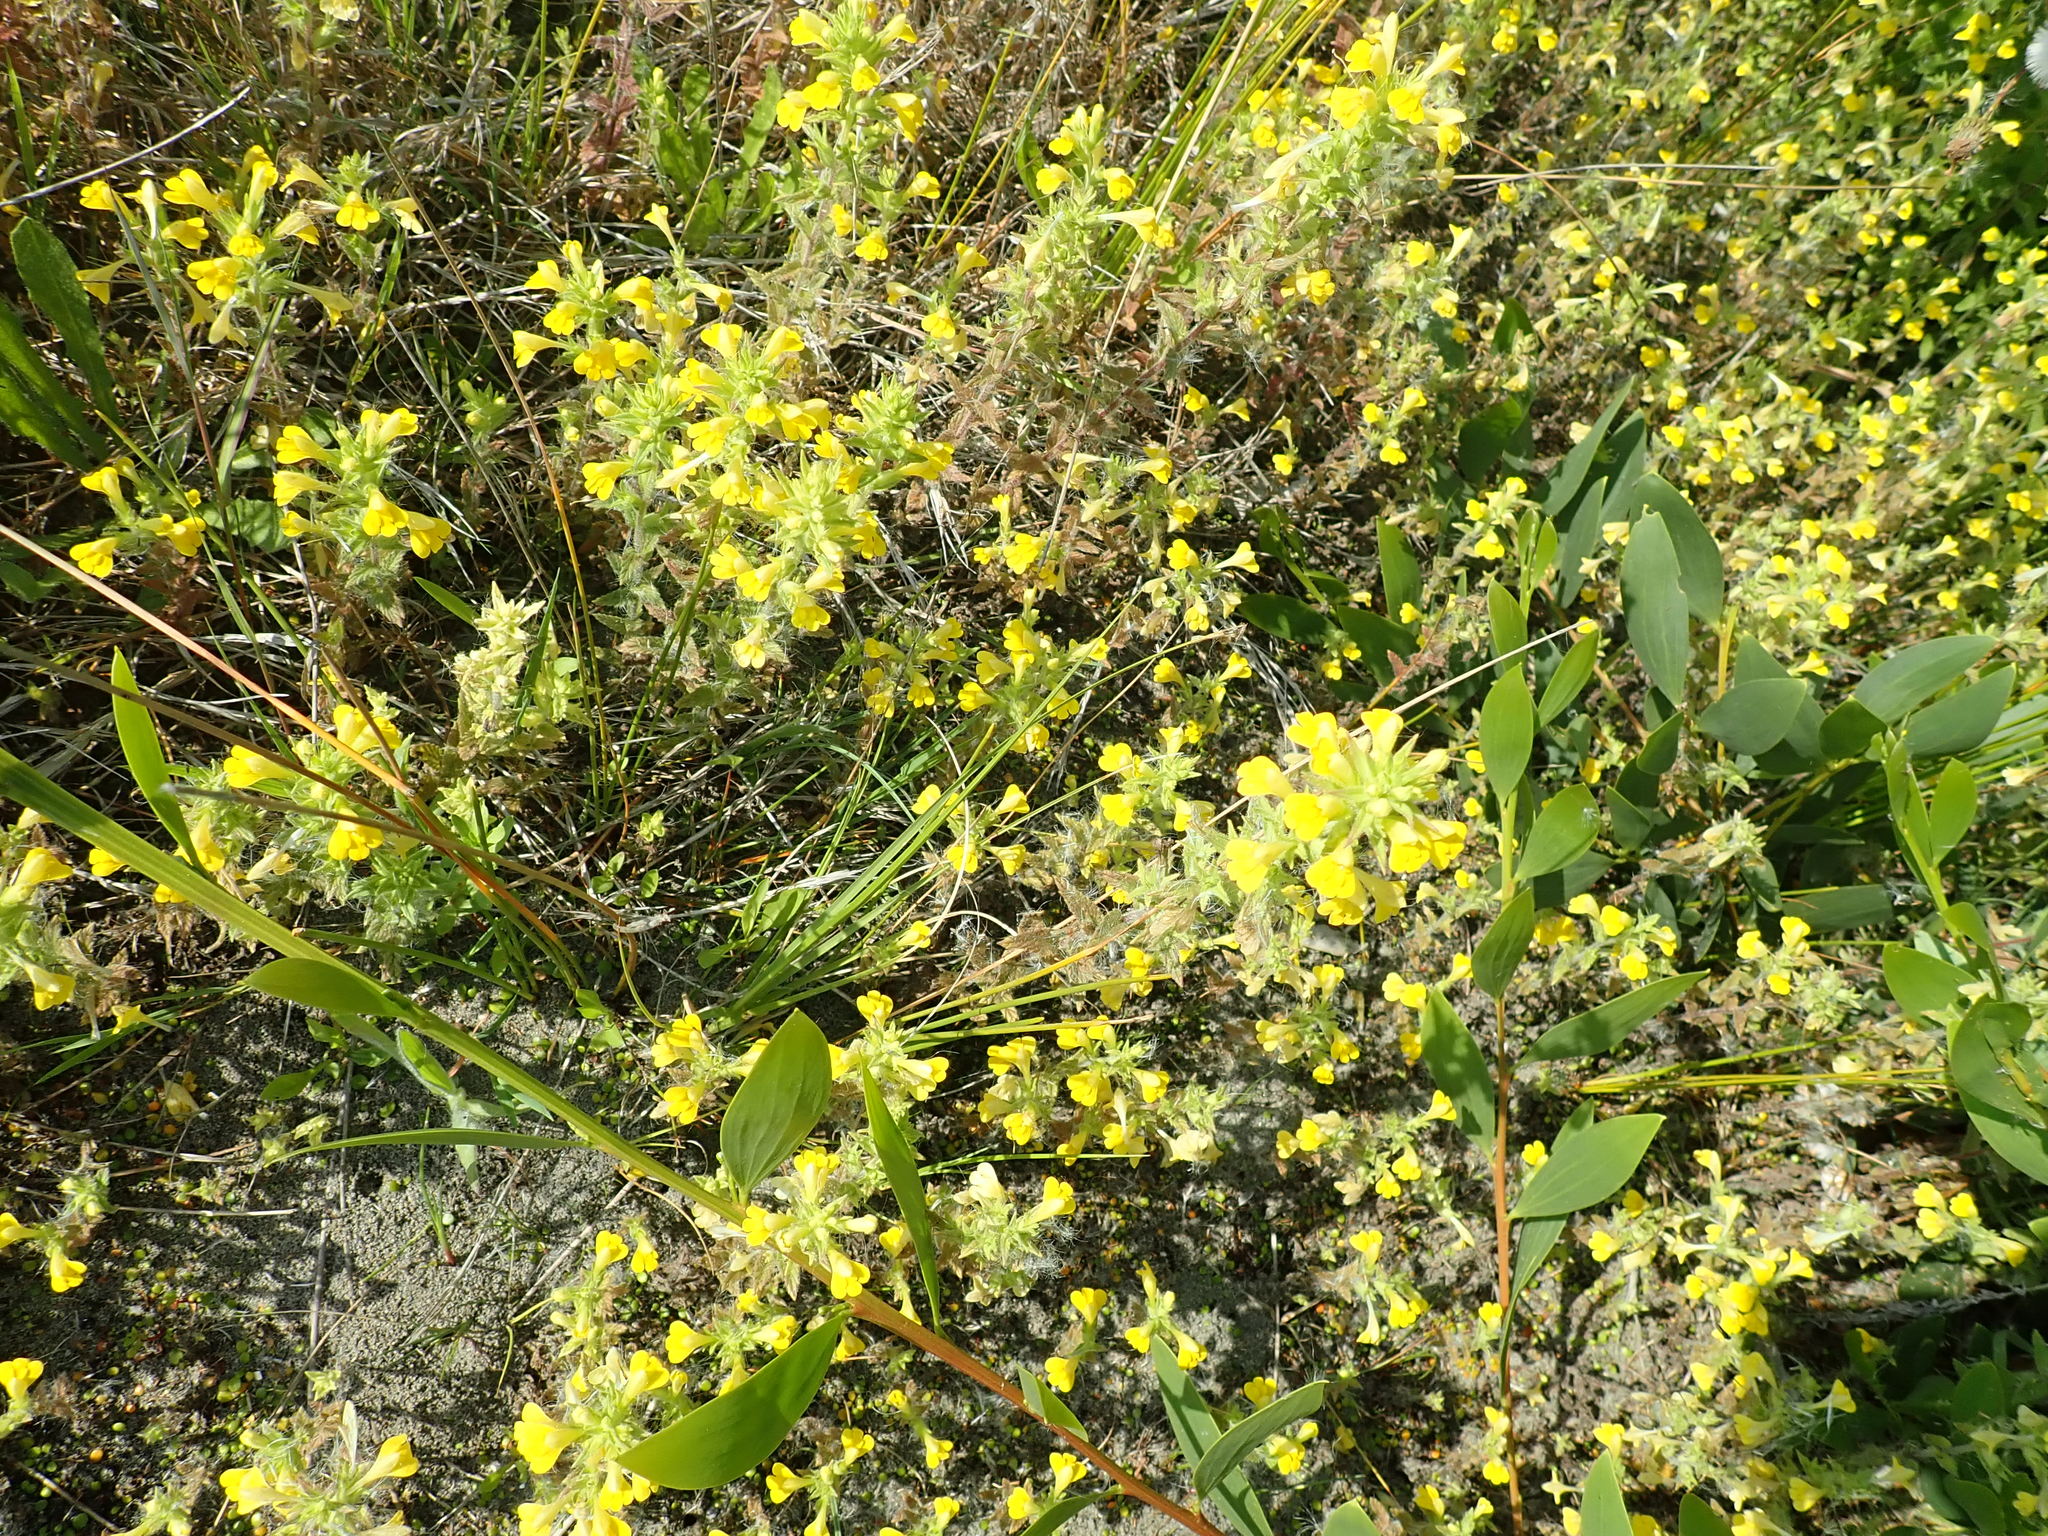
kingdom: Plantae
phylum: Tracheophyta
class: Magnoliopsida
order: Lamiales
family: Orobanchaceae
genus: Bellardia
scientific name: Bellardia viscosa
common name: Sticky parentucellia
